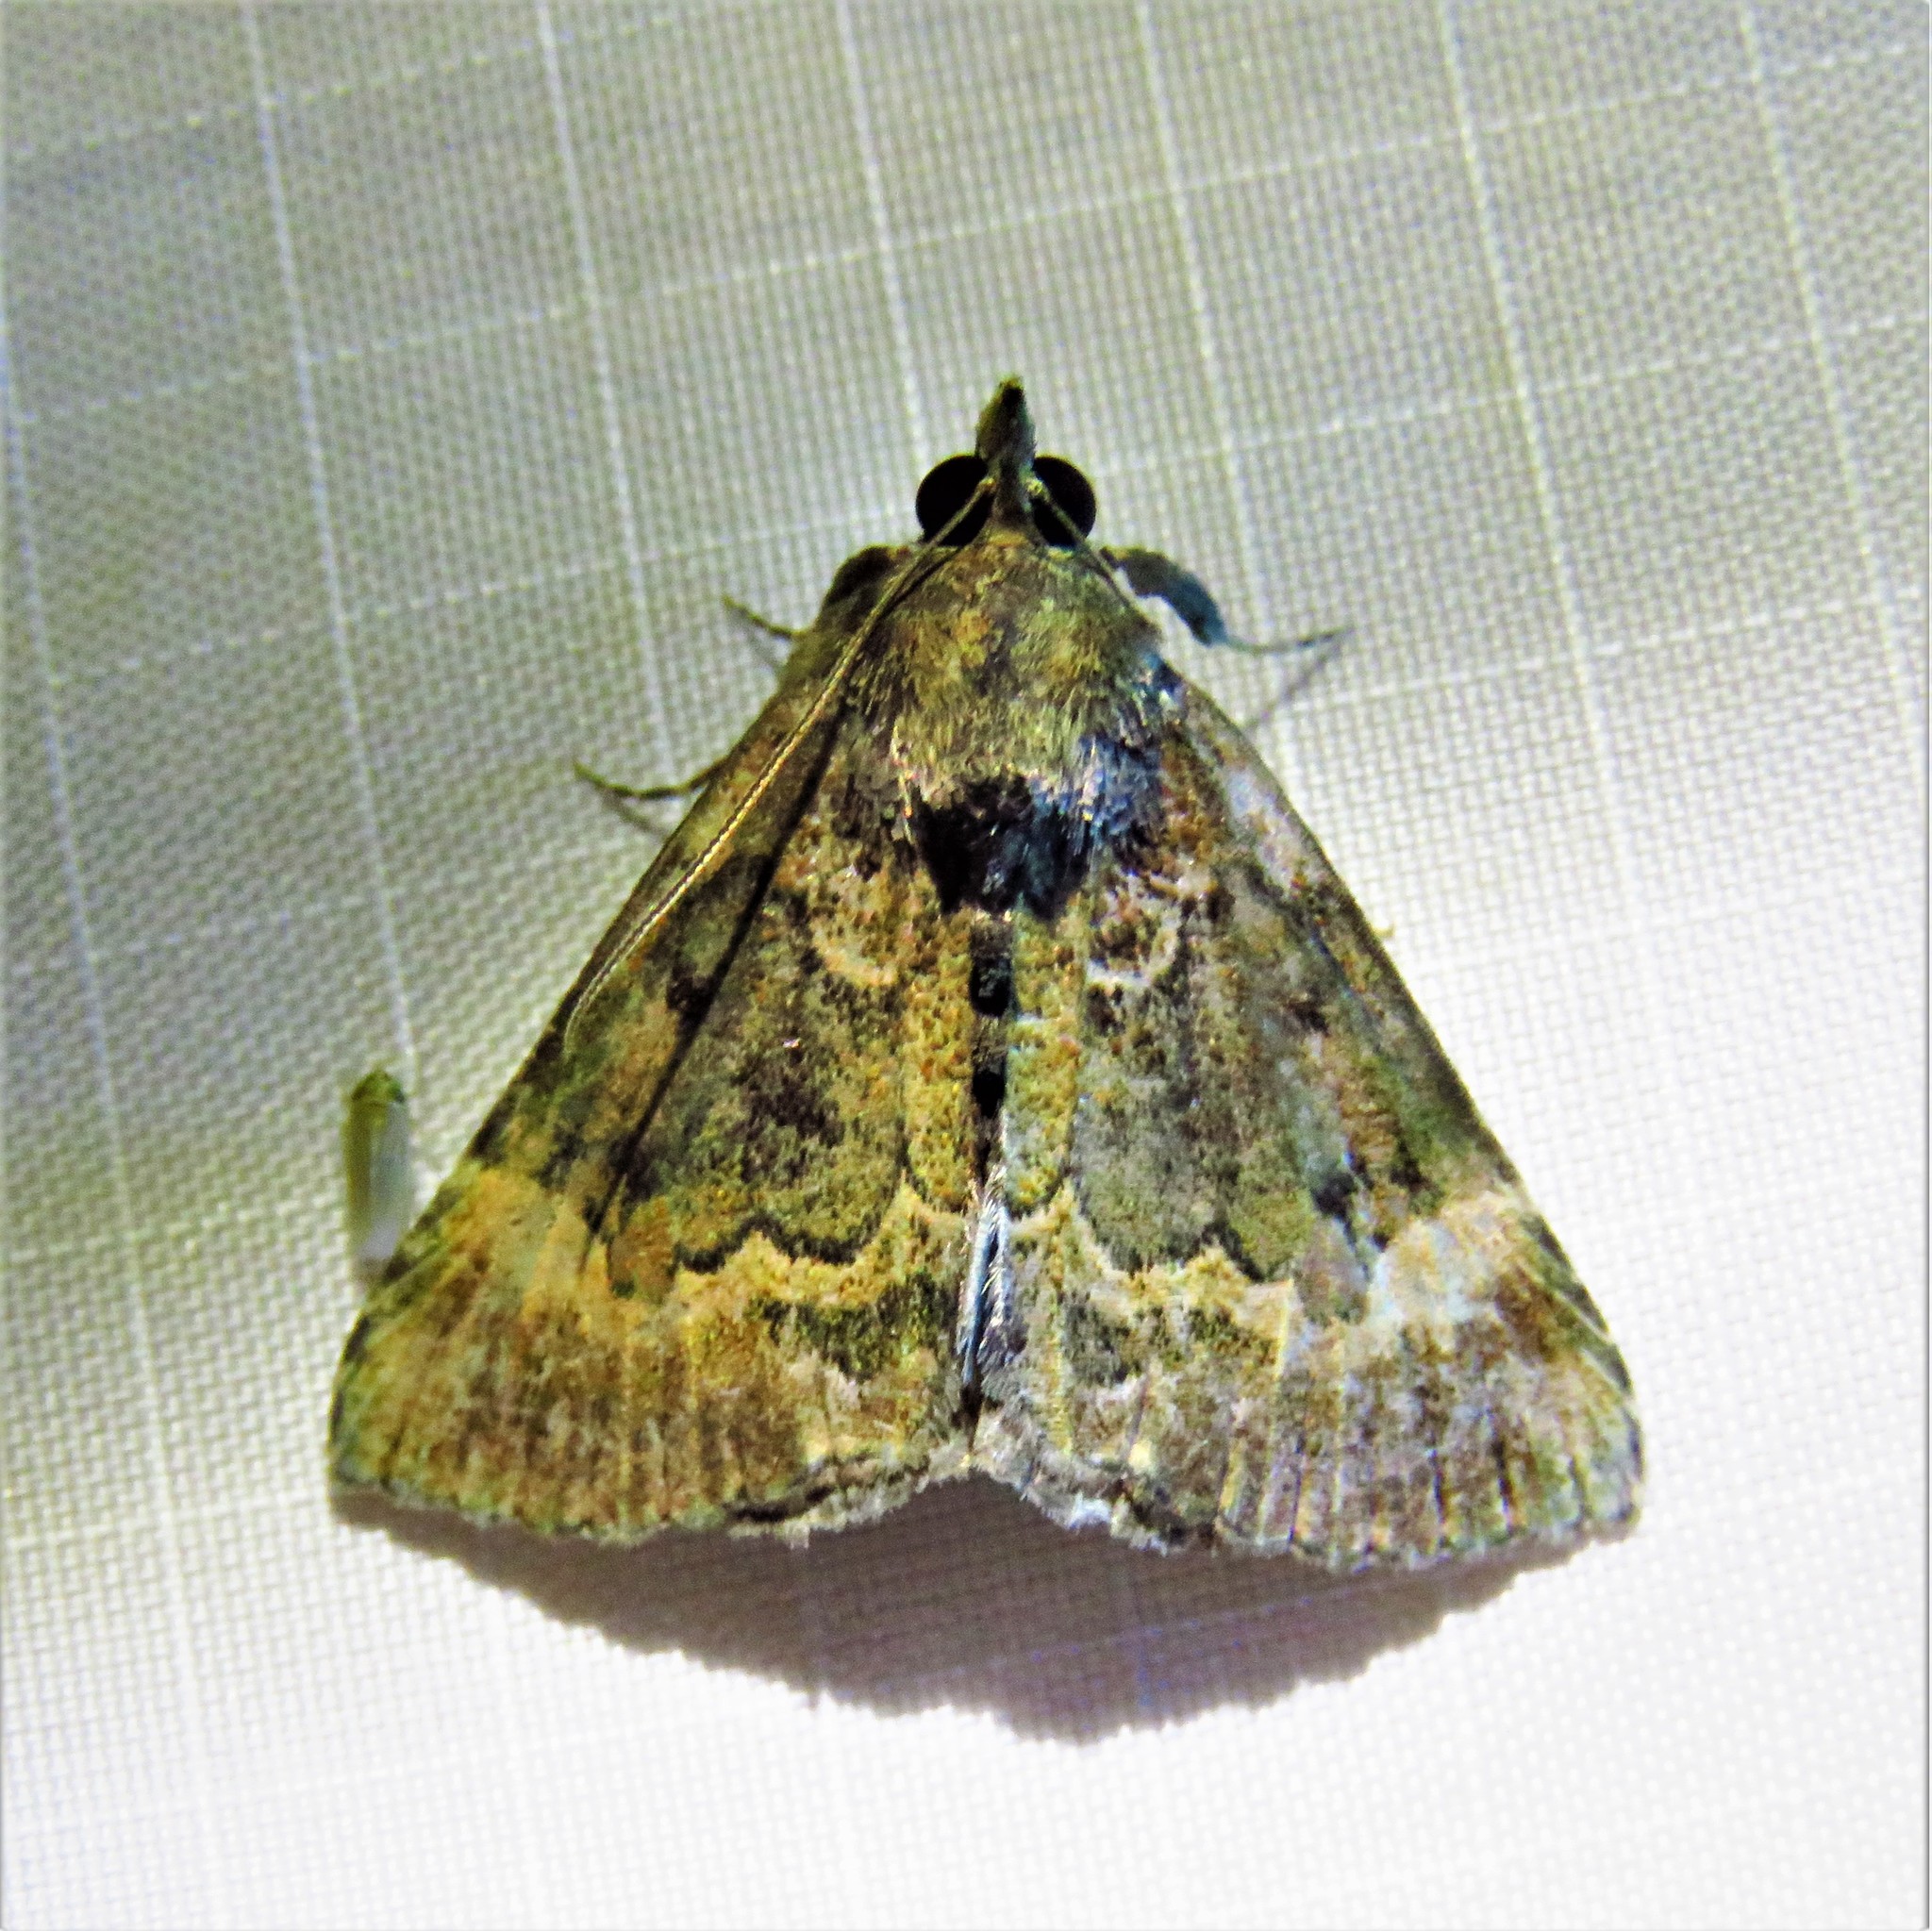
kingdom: Animalia
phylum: Arthropoda
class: Insecta
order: Lepidoptera
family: Erebidae
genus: Hypena
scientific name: Hypena palparia
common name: Mottled bomolocha moth
